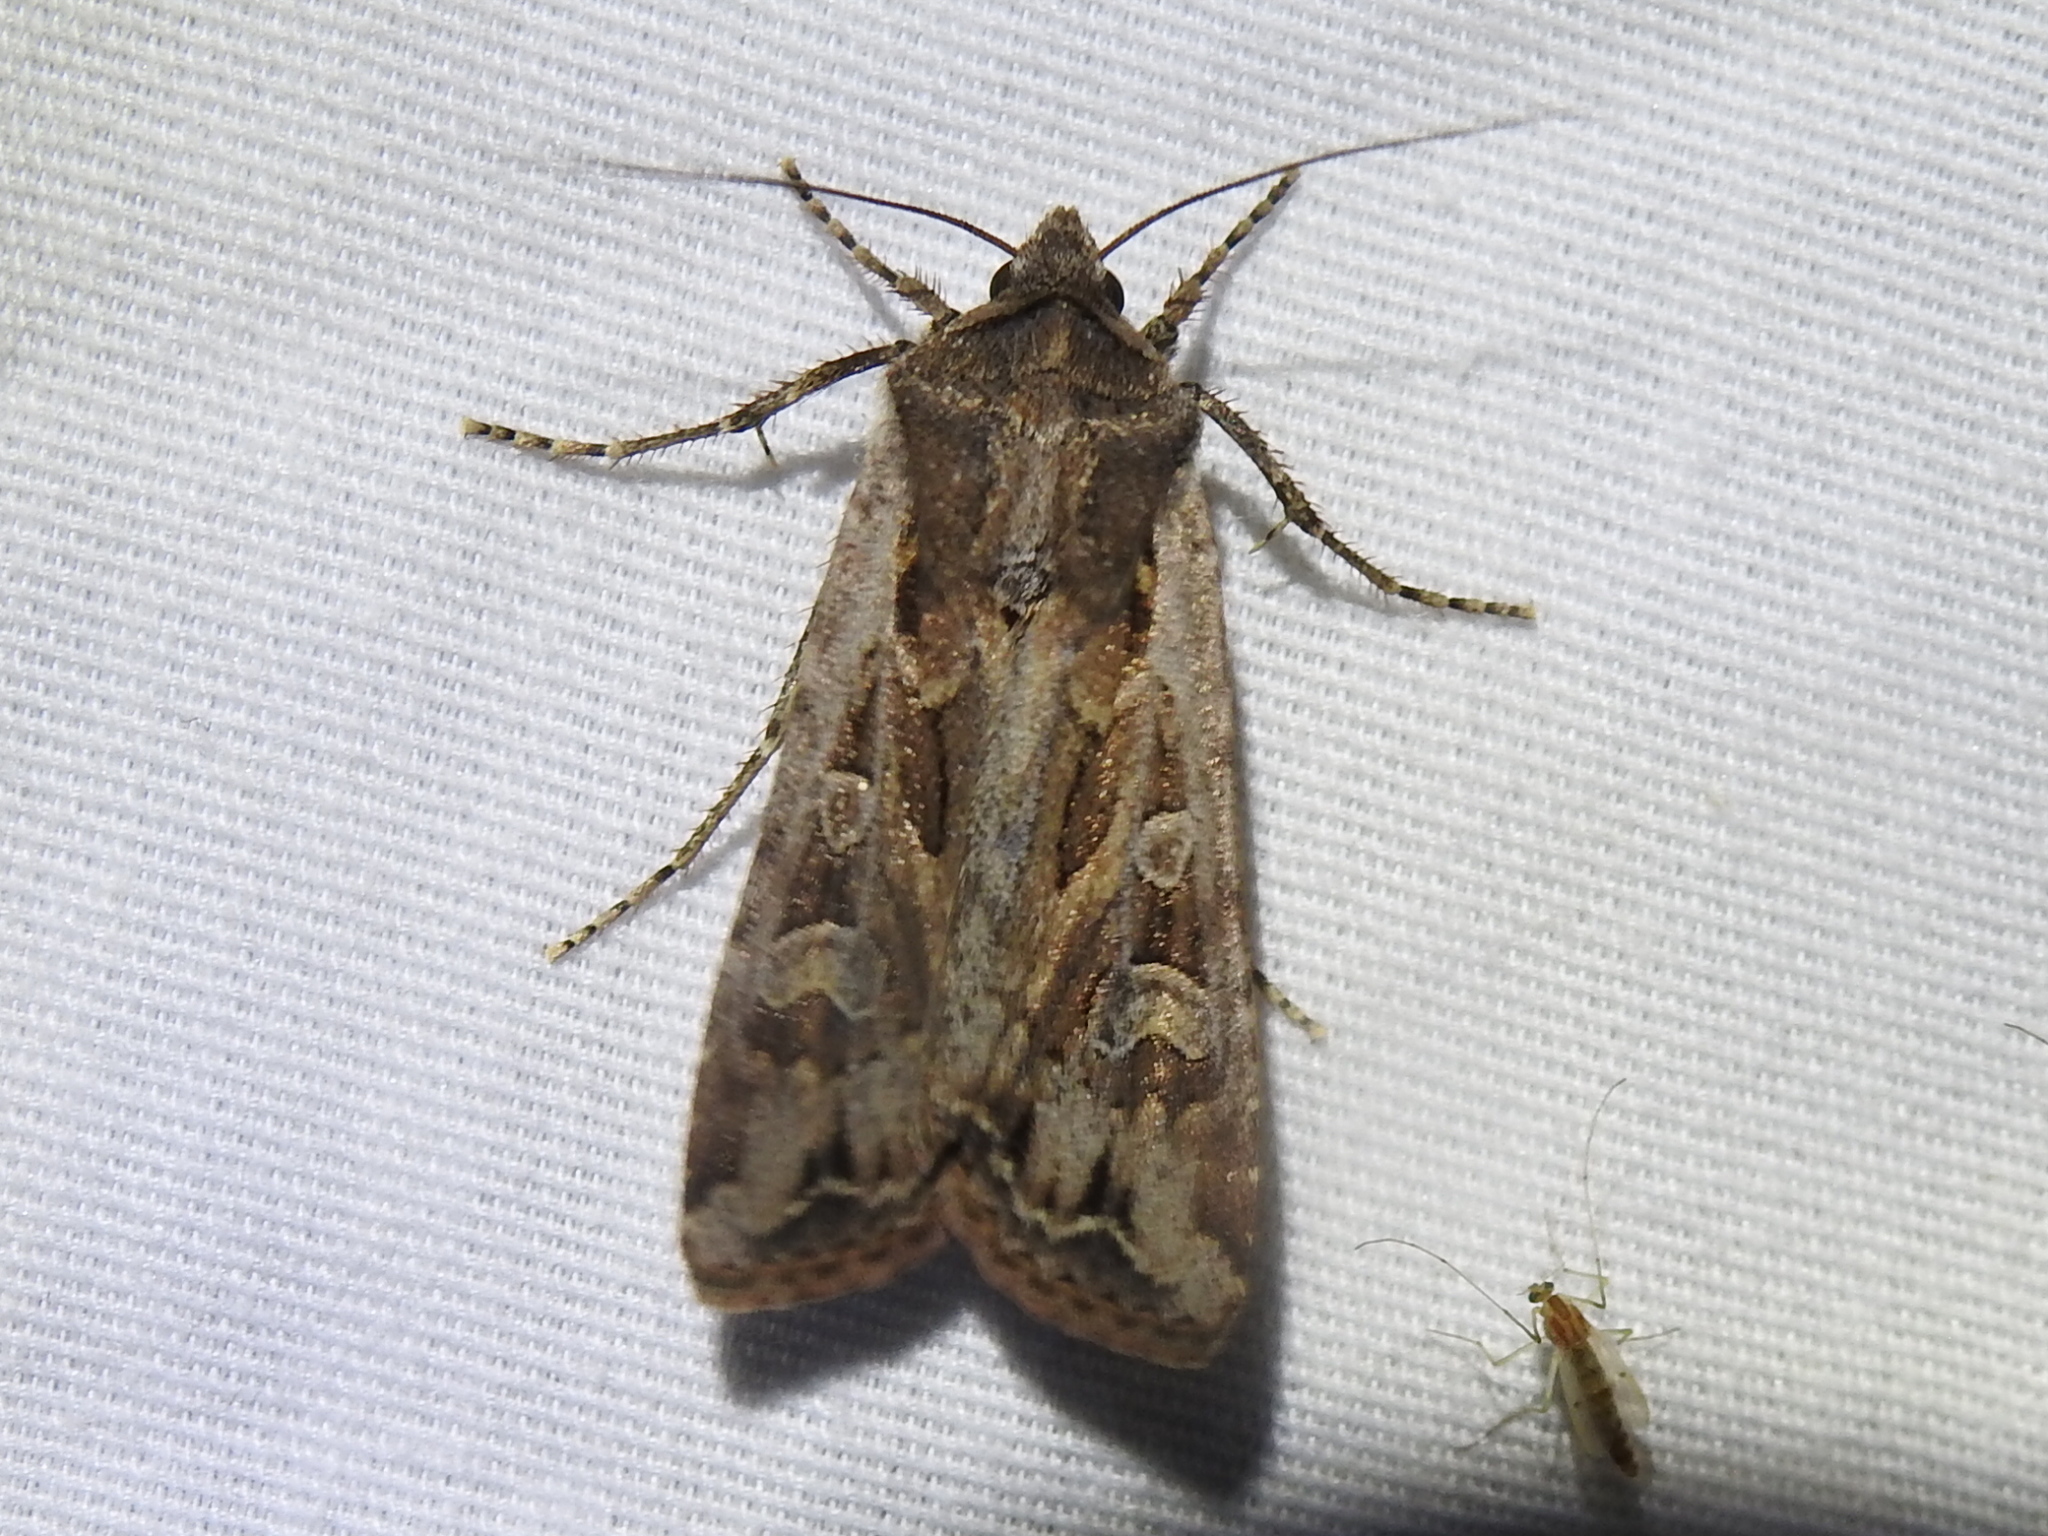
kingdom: Animalia
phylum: Arthropoda
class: Insecta
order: Lepidoptera
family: Noctuidae
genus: Euxoa
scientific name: Euxoa auxiliaris
